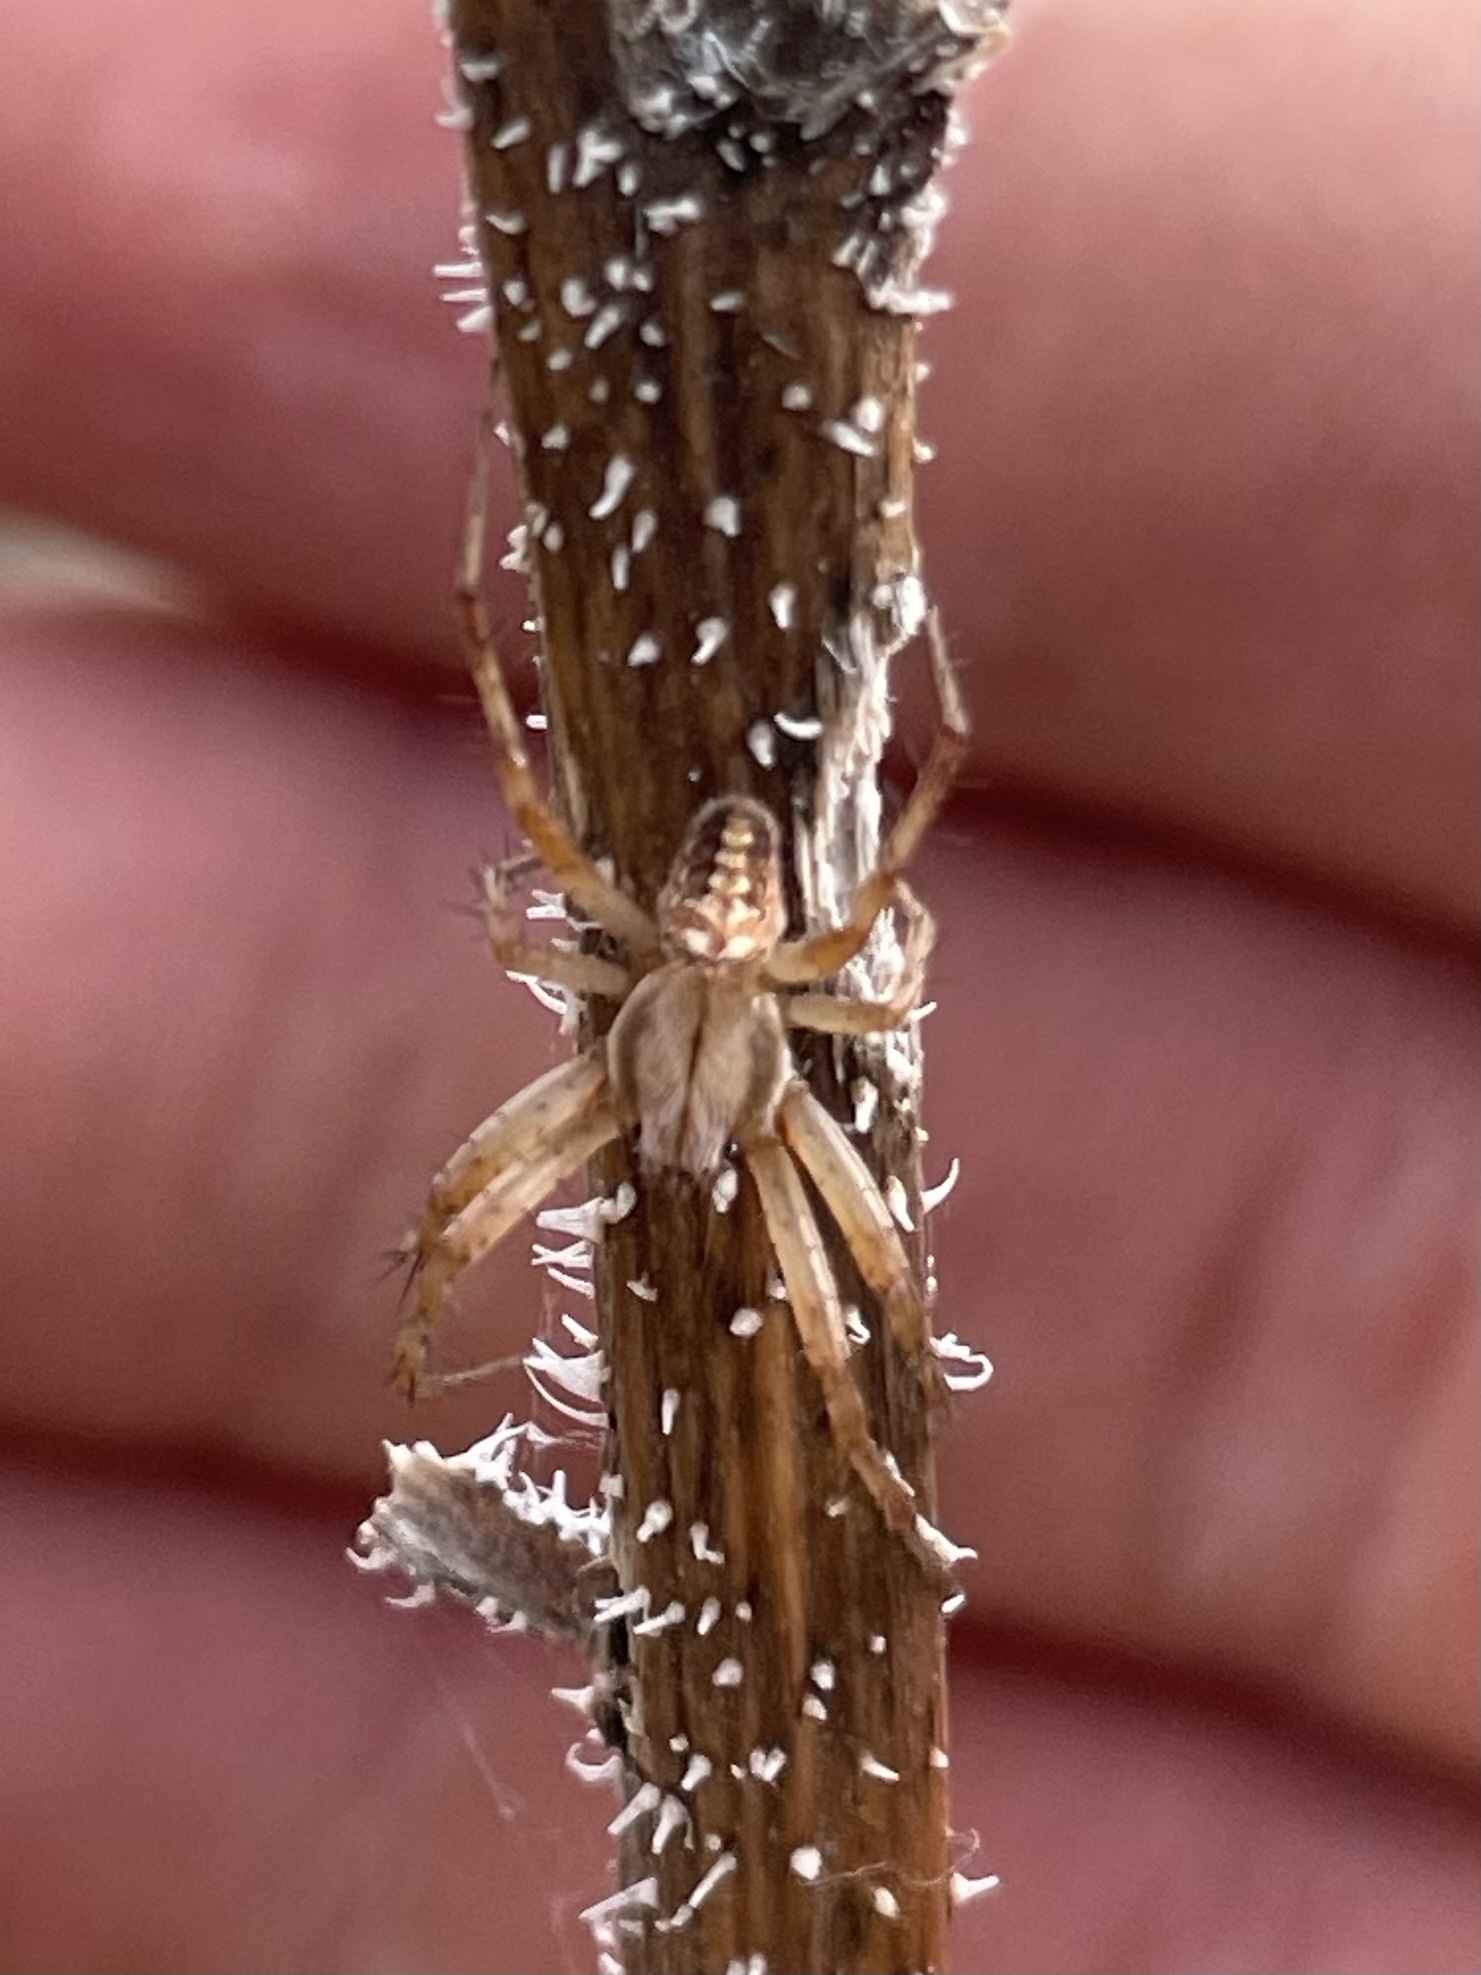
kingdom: Animalia
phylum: Arthropoda
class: Arachnida
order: Araneae
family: Araneidae
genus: Neoscona
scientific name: Neoscona oaxacensis
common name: Orb weavers
